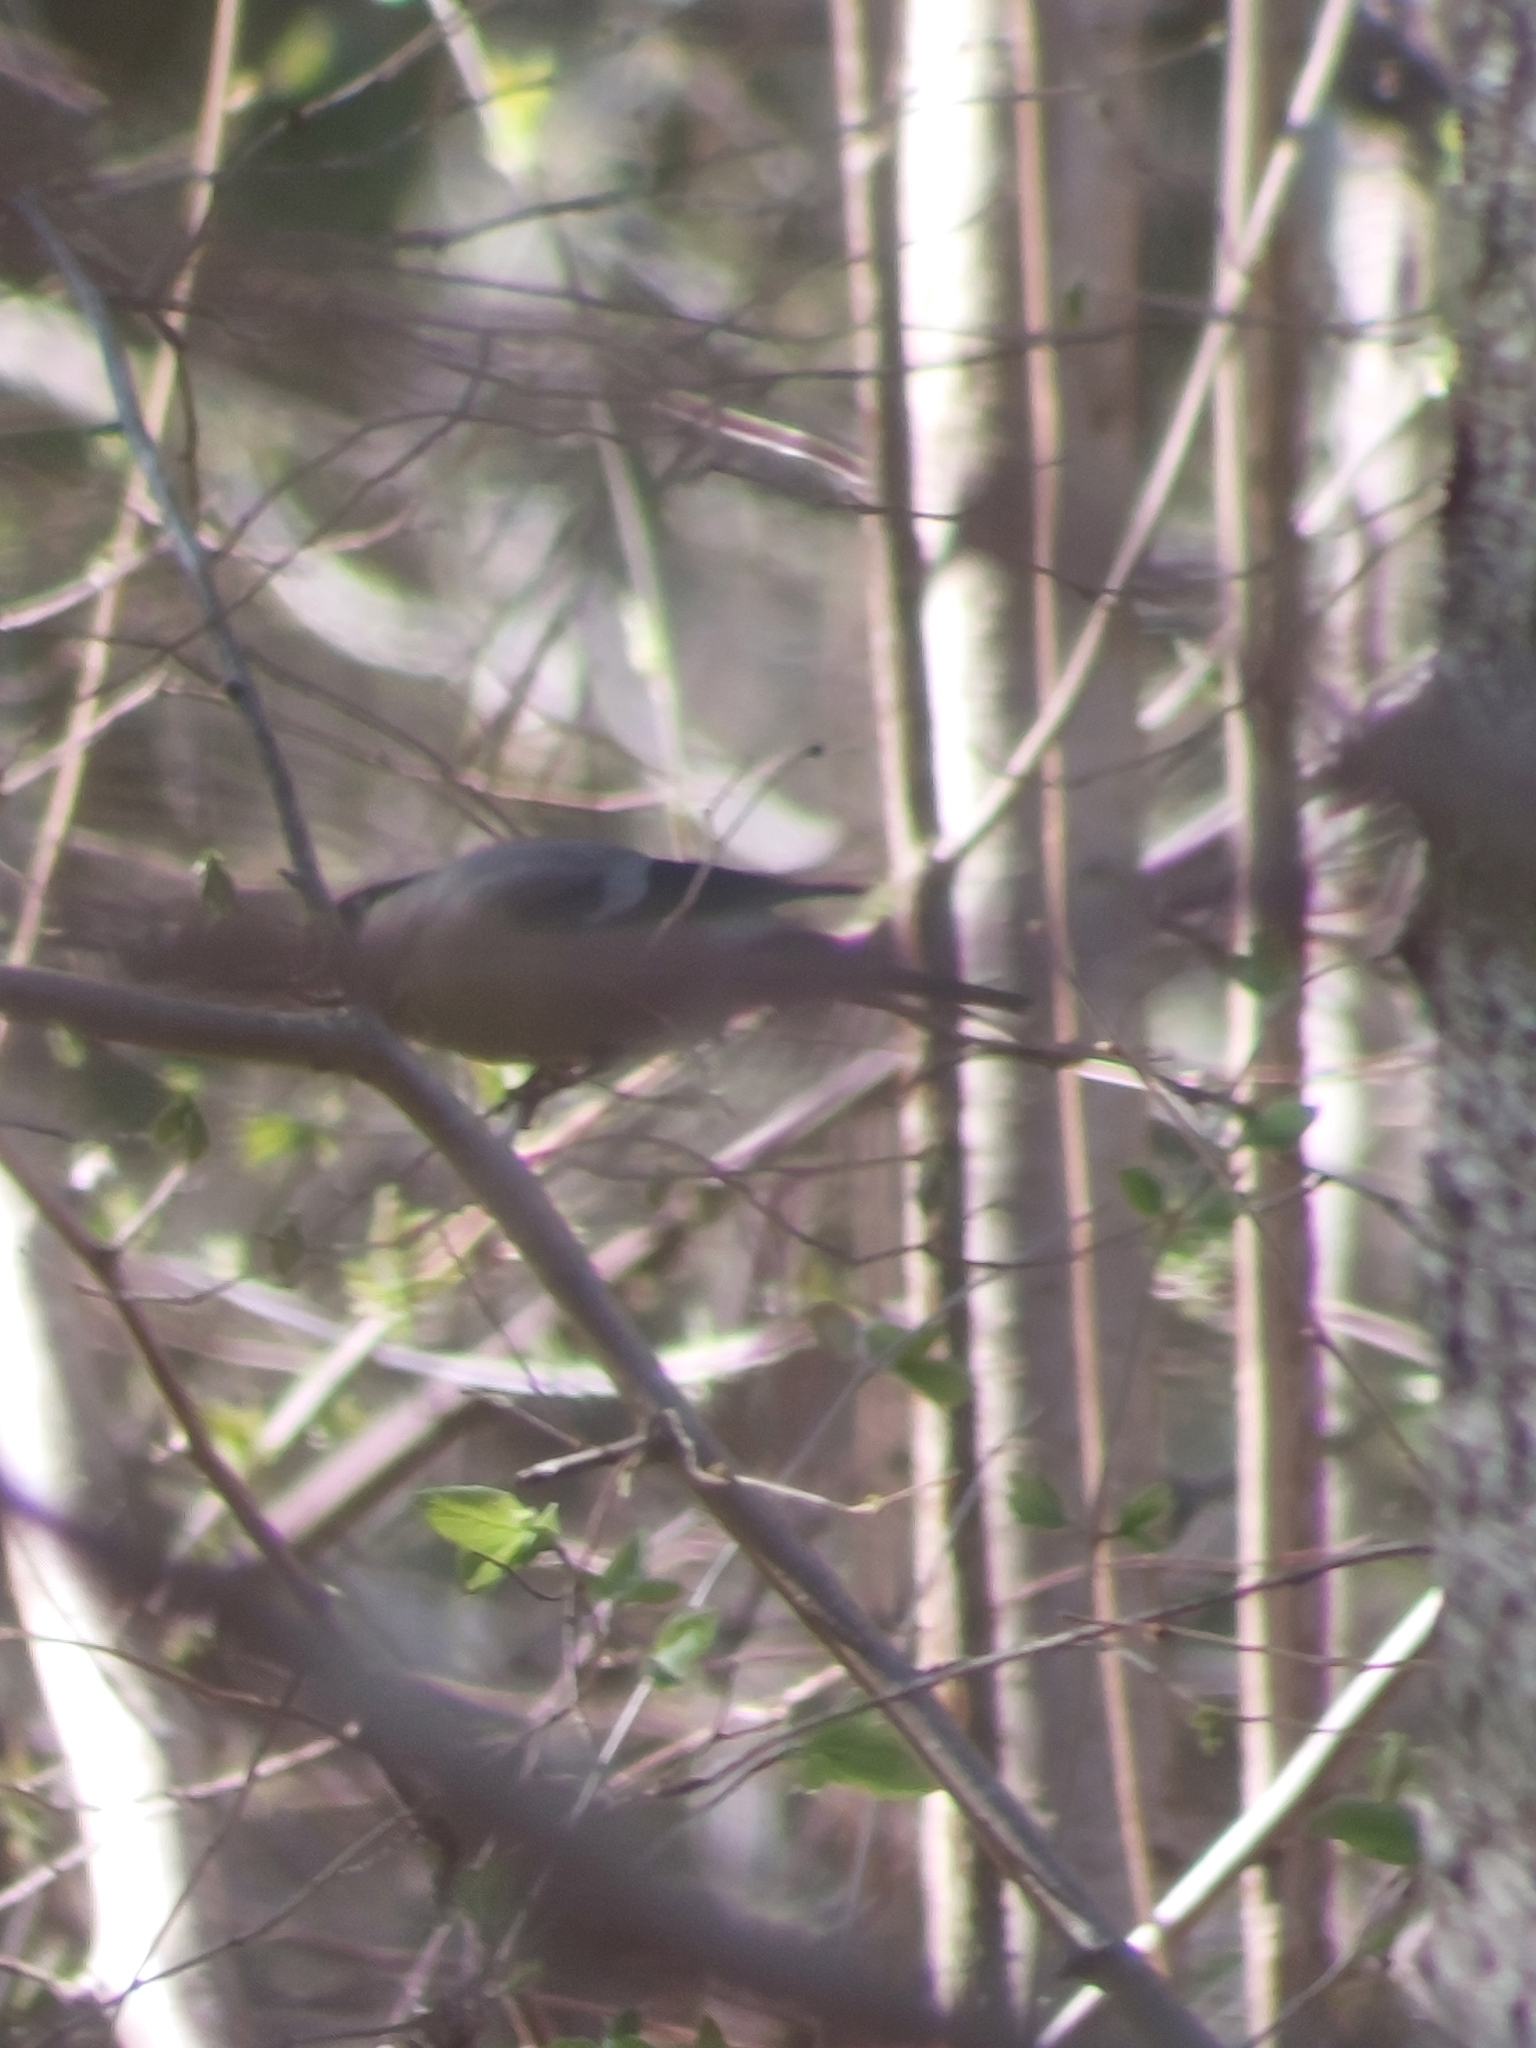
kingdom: Animalia
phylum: Chordata
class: Aves
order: Passeriformes
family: Fringillidae
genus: Pyrrhula
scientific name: Pyrrhula pyrrhula
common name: Eurasian bullfinch
